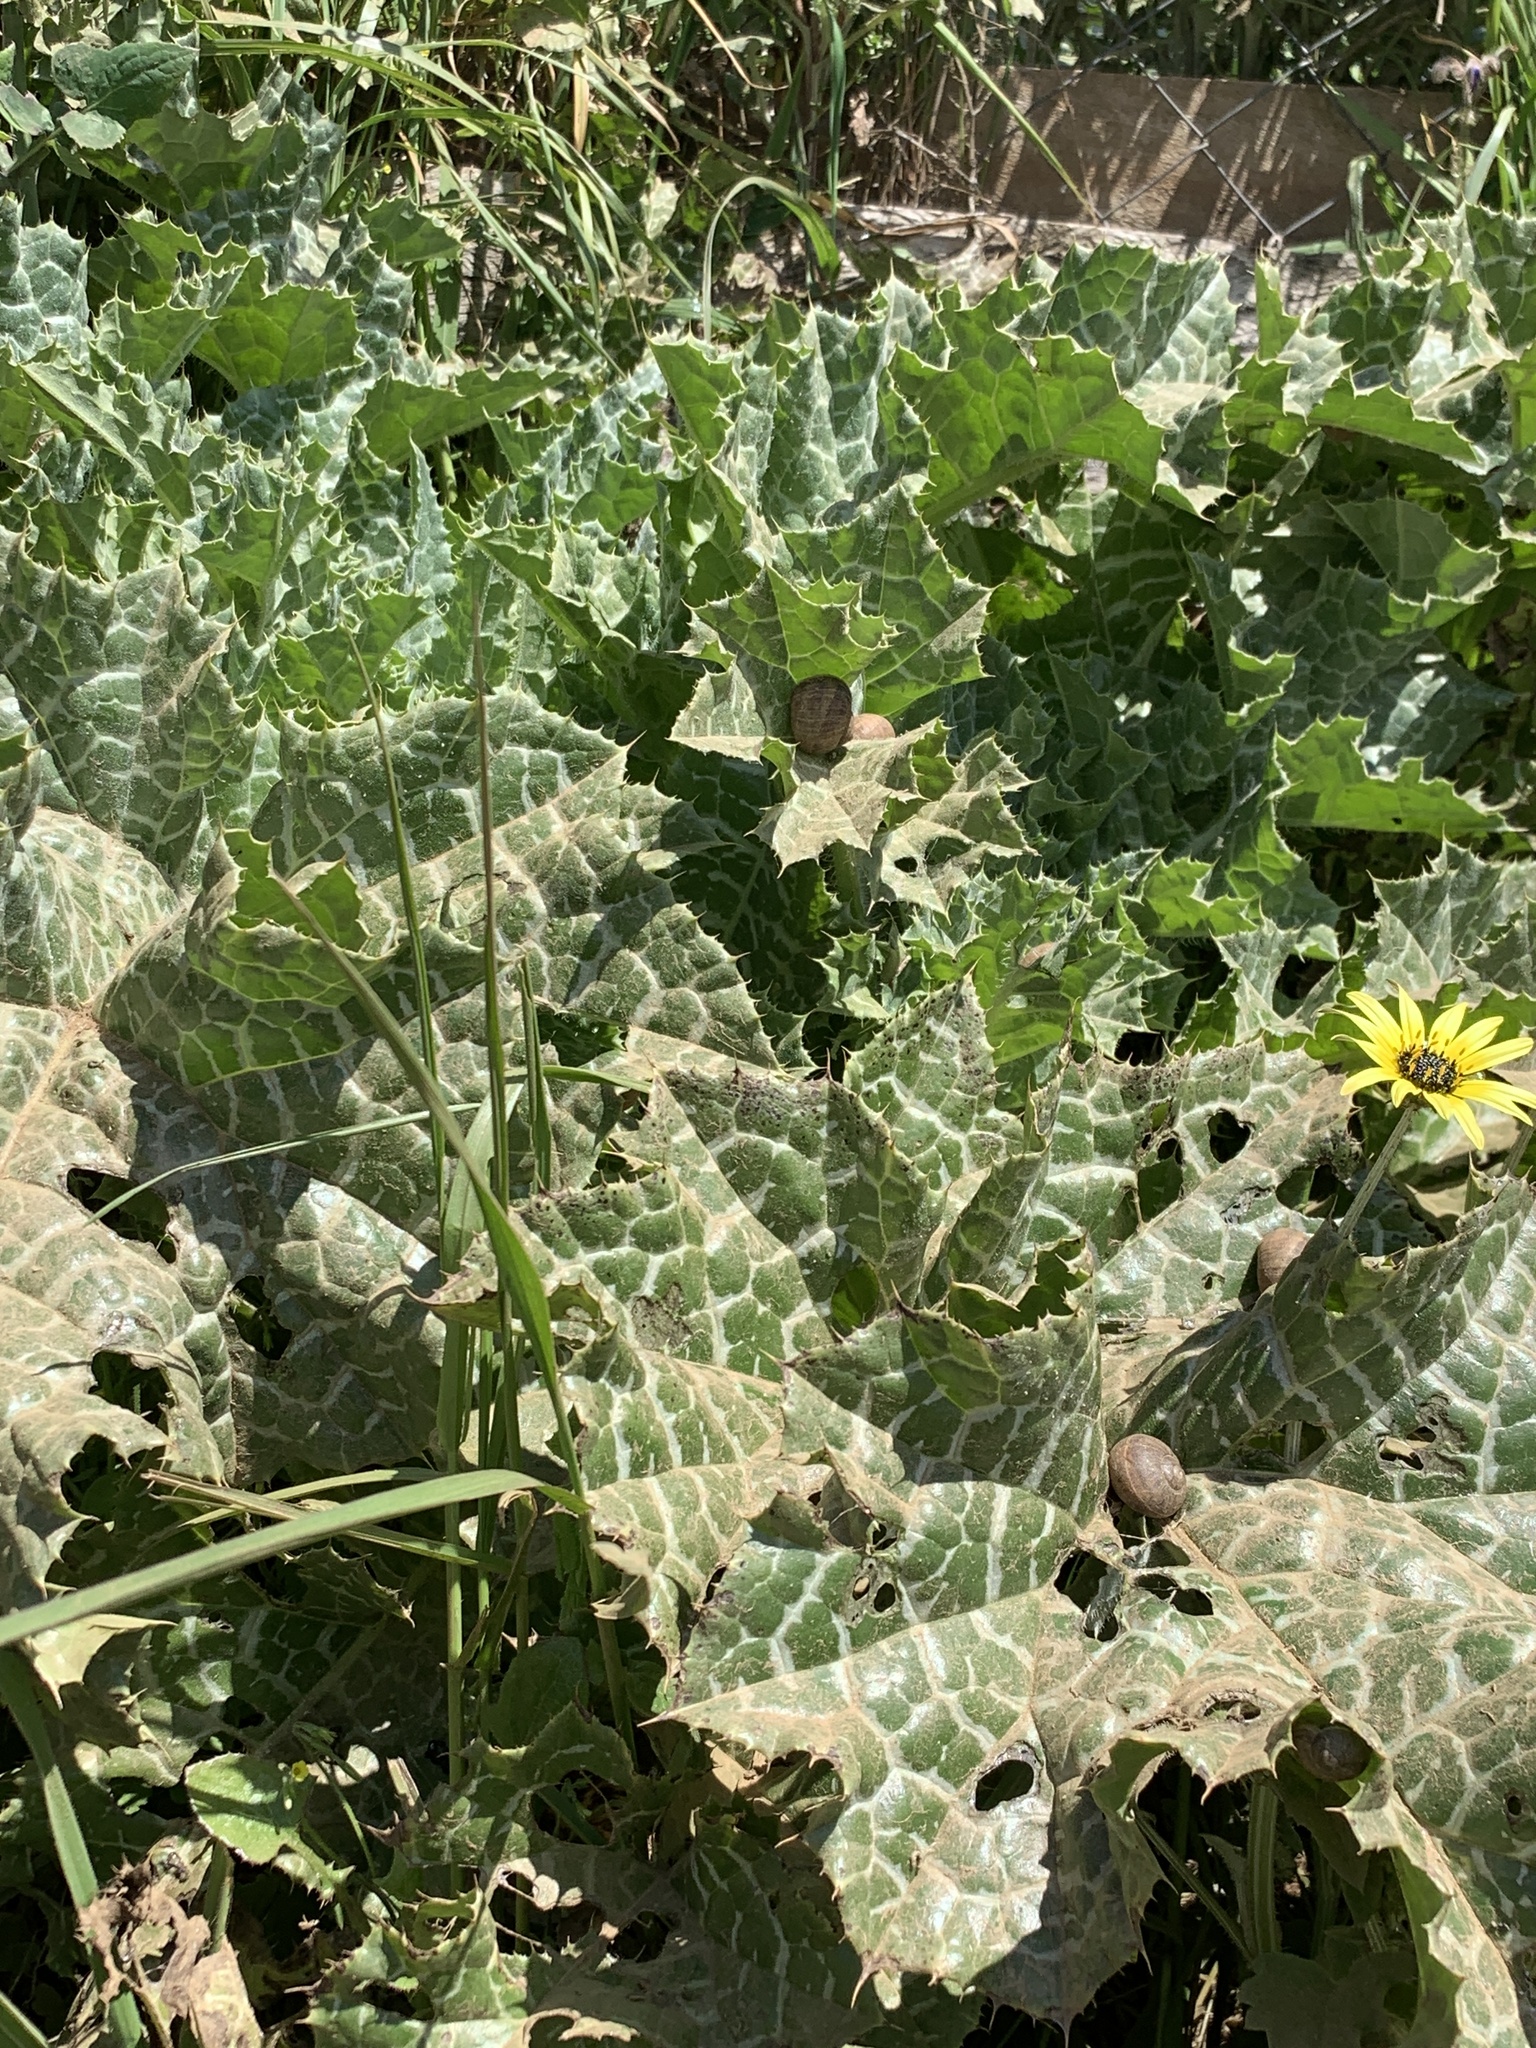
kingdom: Plantae
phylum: Tracheophyta
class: Magnoliopsida
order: Asterales
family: Asteraceae
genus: Silybum
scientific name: Silybum marianum
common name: Milk thistle
